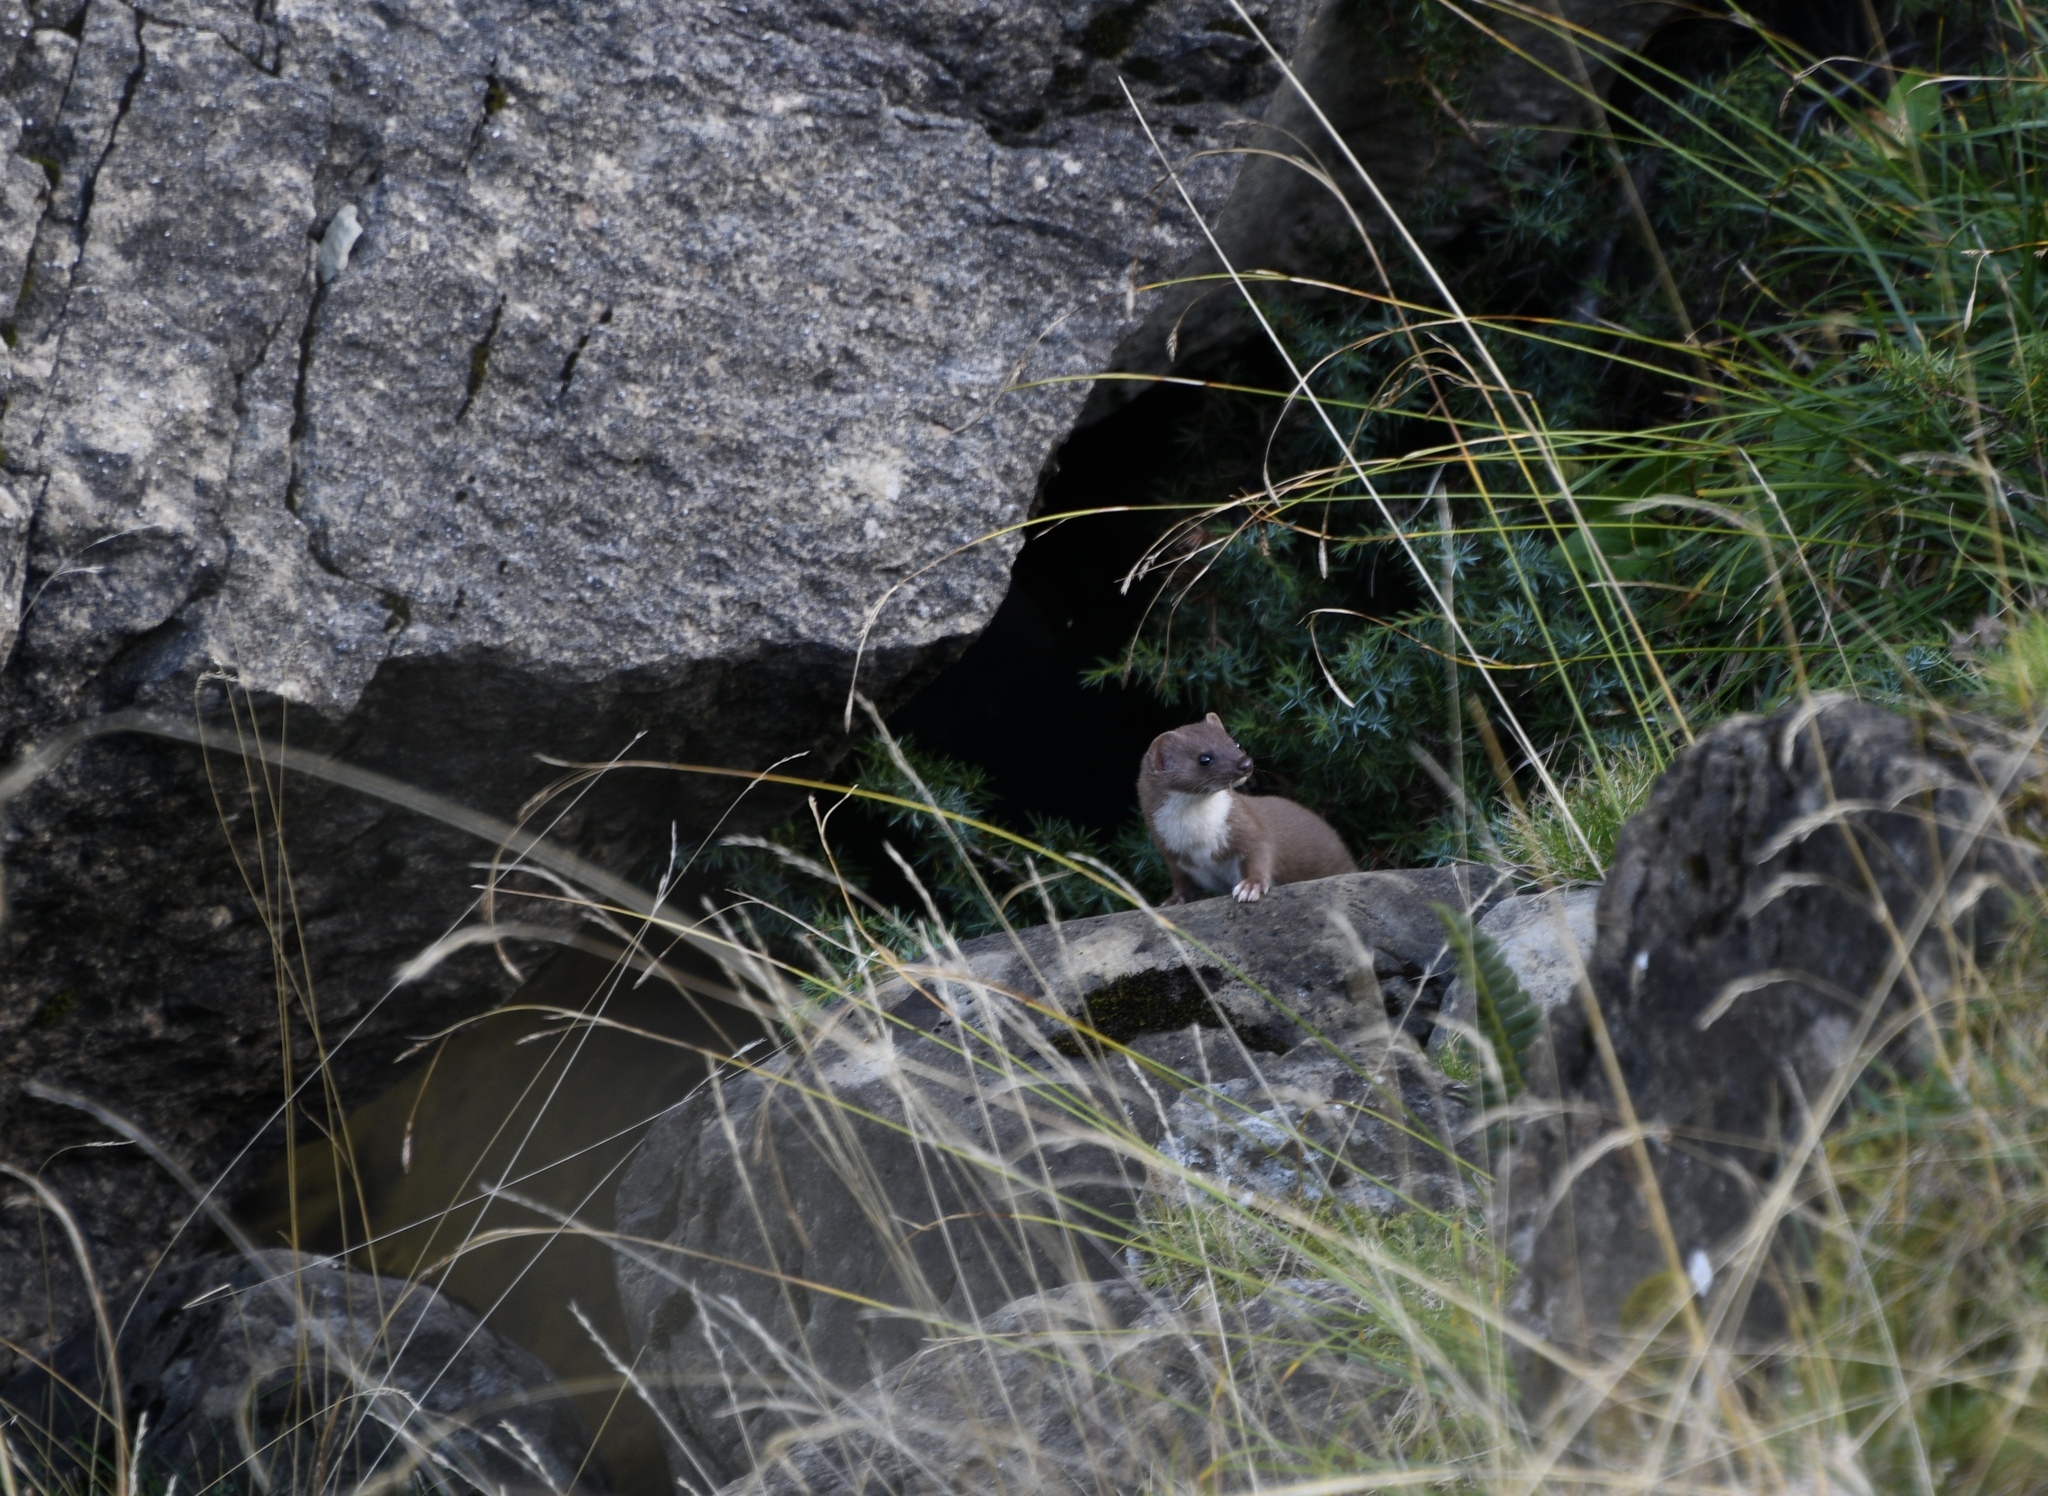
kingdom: Animalia
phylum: Chordata
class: Mammalia
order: Carnivora
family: Mustelidae
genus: Mustela
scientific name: Mustela erminea
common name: Stoat
